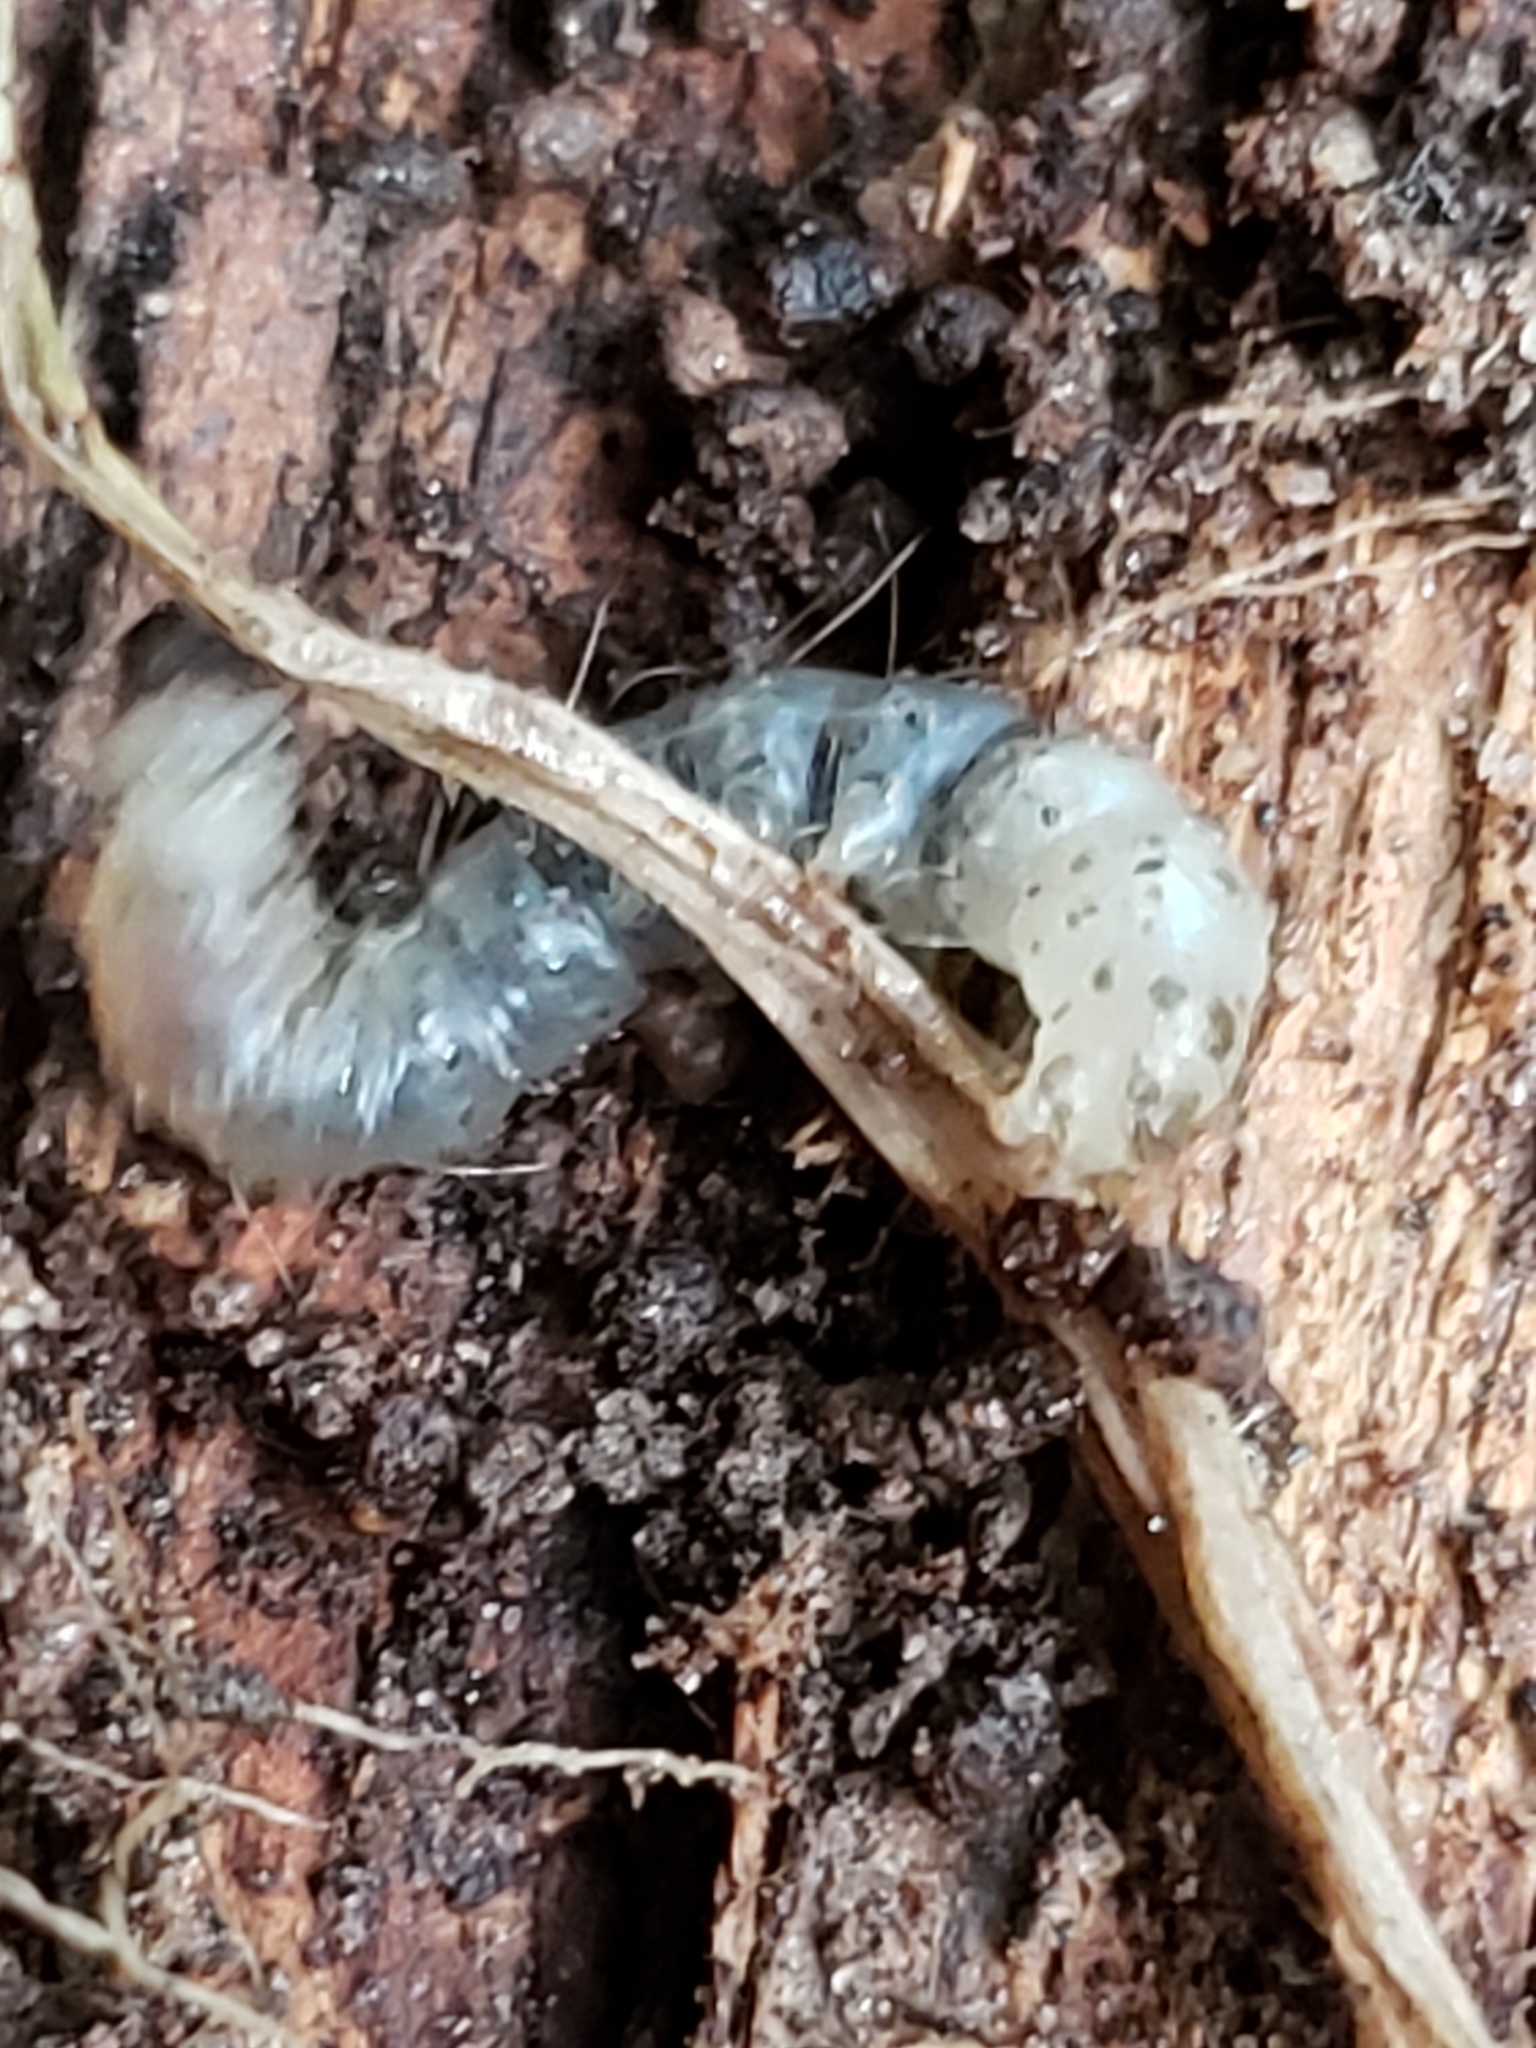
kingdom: Animalia
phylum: Arthropoda
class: Insecta
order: Lepidoptera
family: Erebidae
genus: Scolecocampa
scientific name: Scolecocampa liburna
